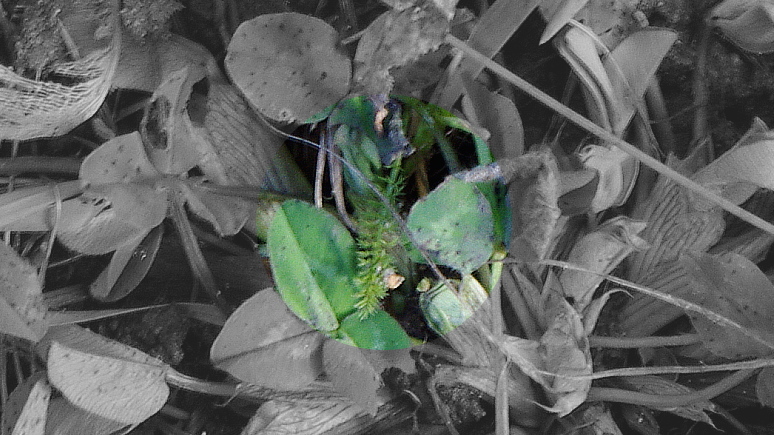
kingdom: Plantae
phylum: Tracheophyta
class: Magnoliopsida
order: Asterales
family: Asteraceae
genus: Achillea
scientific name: Achillea millefolium
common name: Yarrow
